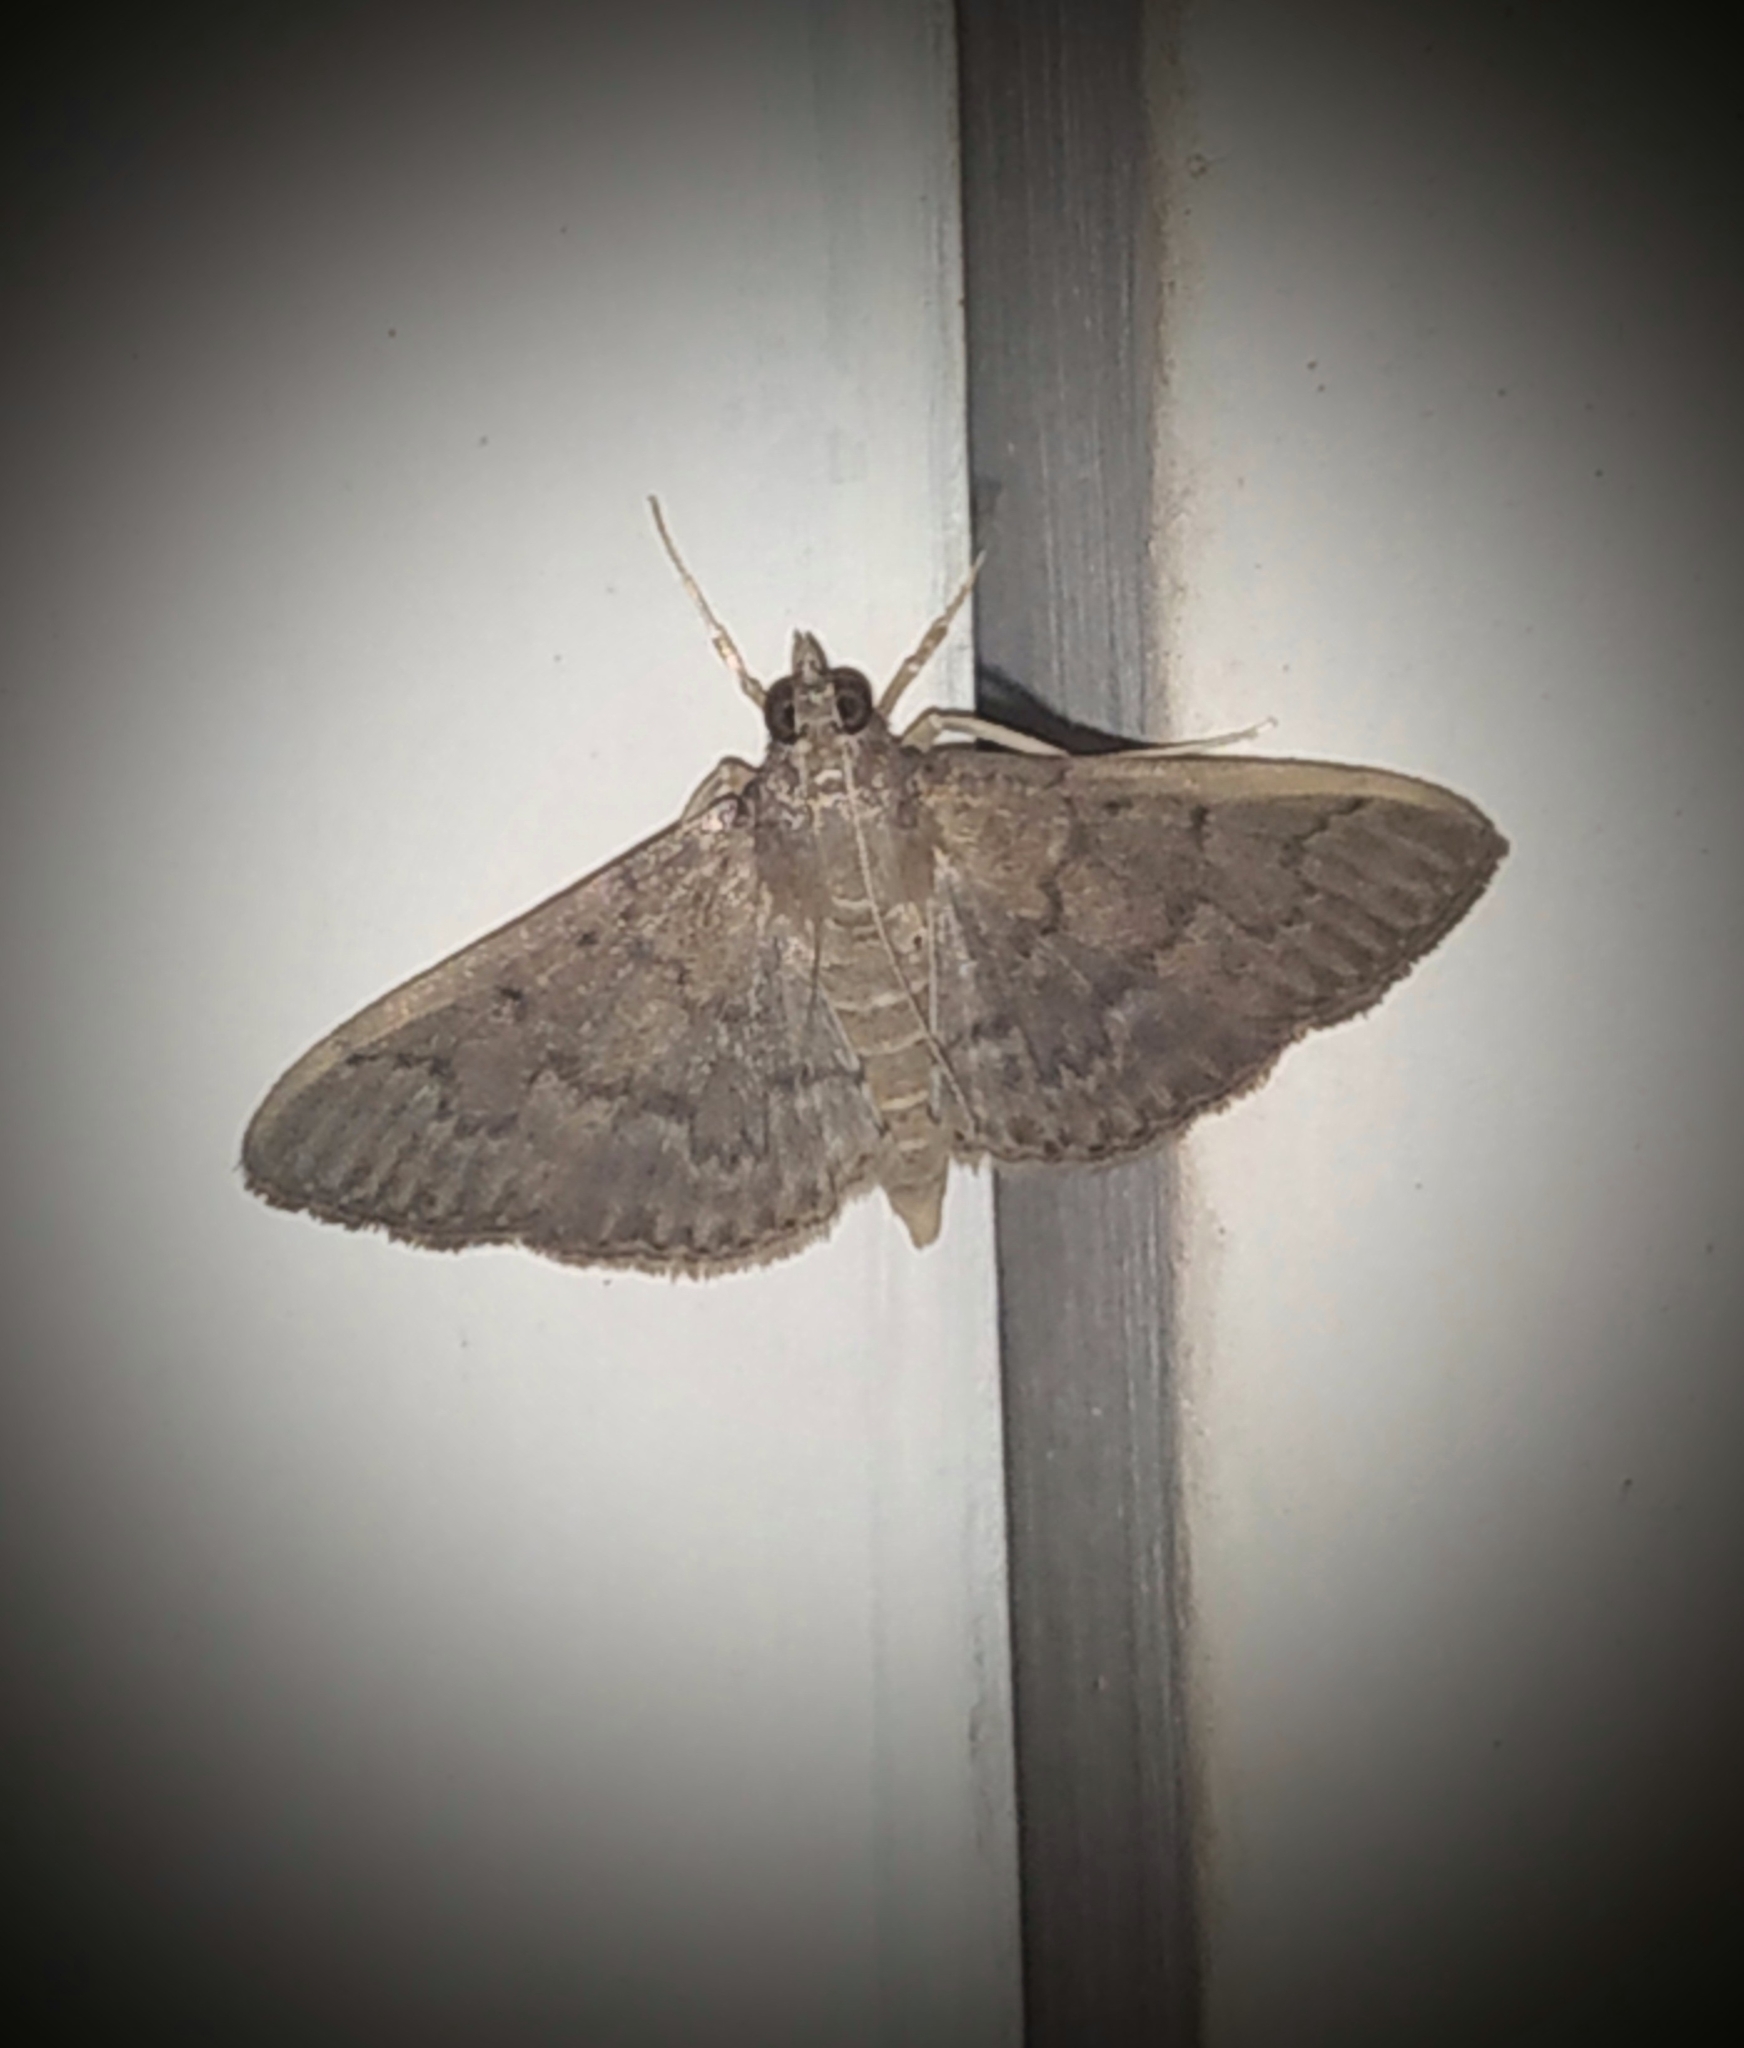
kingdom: Animalia
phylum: Arthropoda
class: Insecta
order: Lepidoptera
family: Crambidae
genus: Herpetogramma
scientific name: Herpetogramma licarsisalis
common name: Grass webworm
